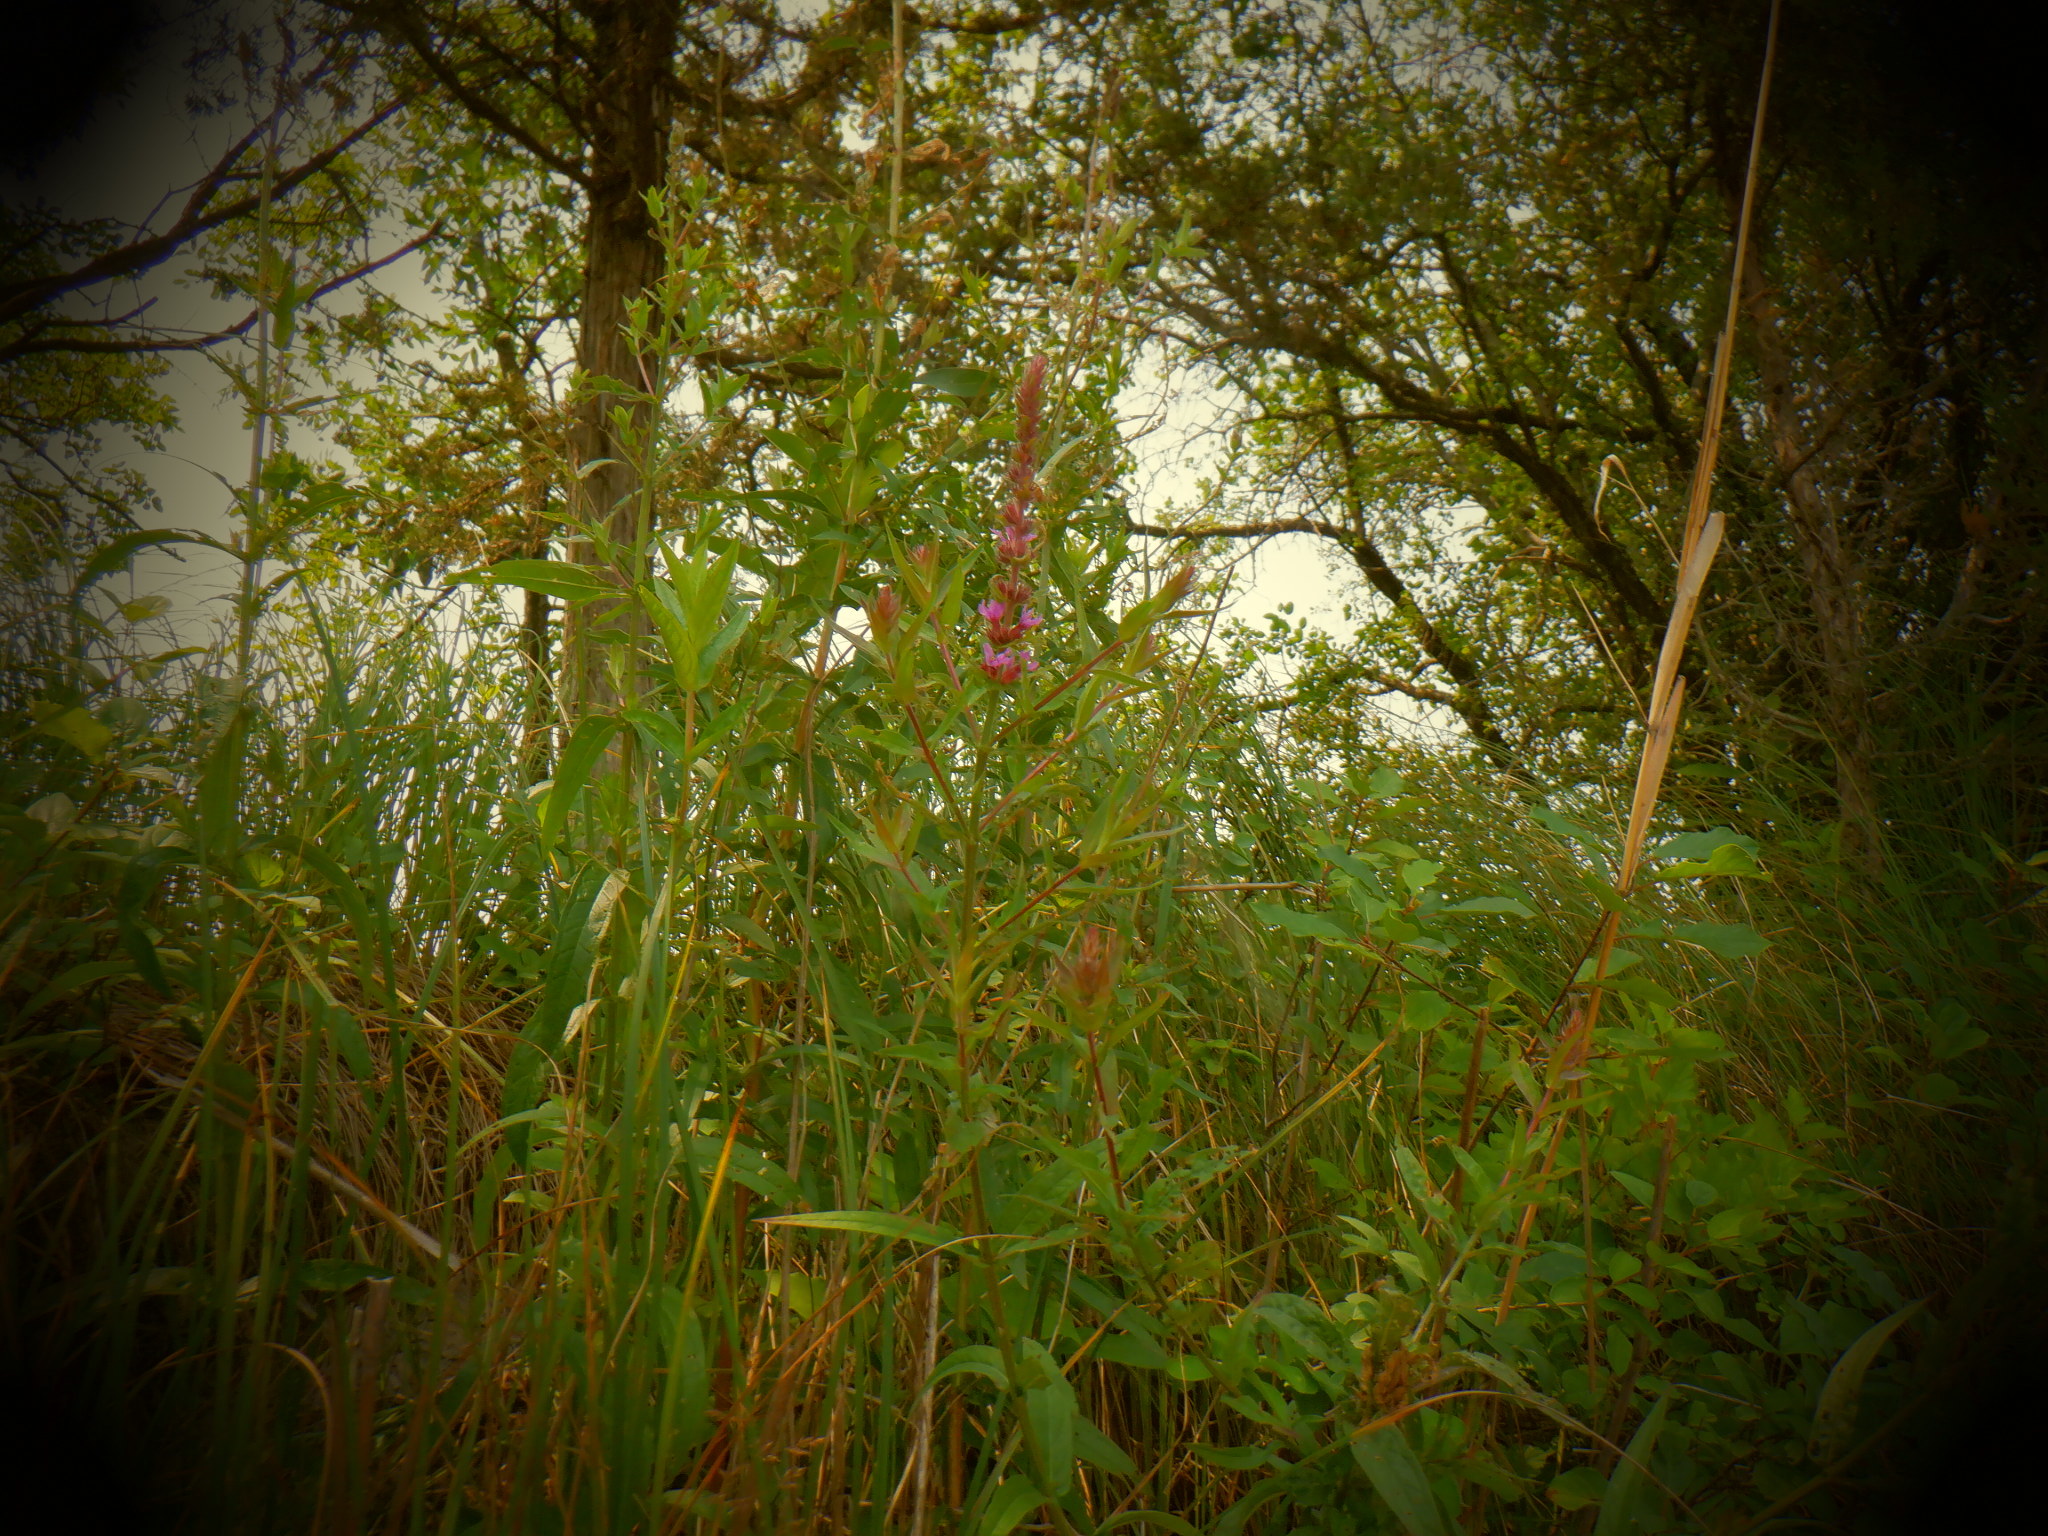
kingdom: Plantae
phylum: Tracheophyta
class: Magnoliopsida
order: Myrtales
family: Lythraceae
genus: Lythrum
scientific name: Lythrum salicaria
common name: Purple loosestrife
